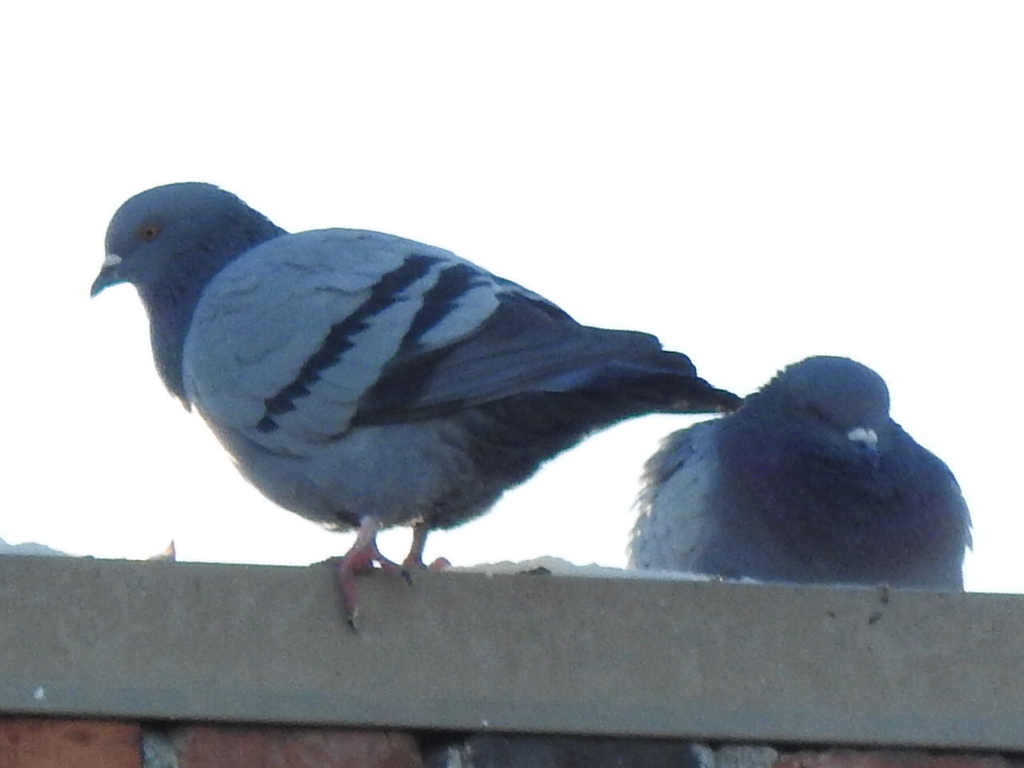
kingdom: Animalia
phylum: Chordata
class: Aves
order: Columbiformes
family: Columbidae
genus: Columba
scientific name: Columba livia
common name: Rock pigeon
